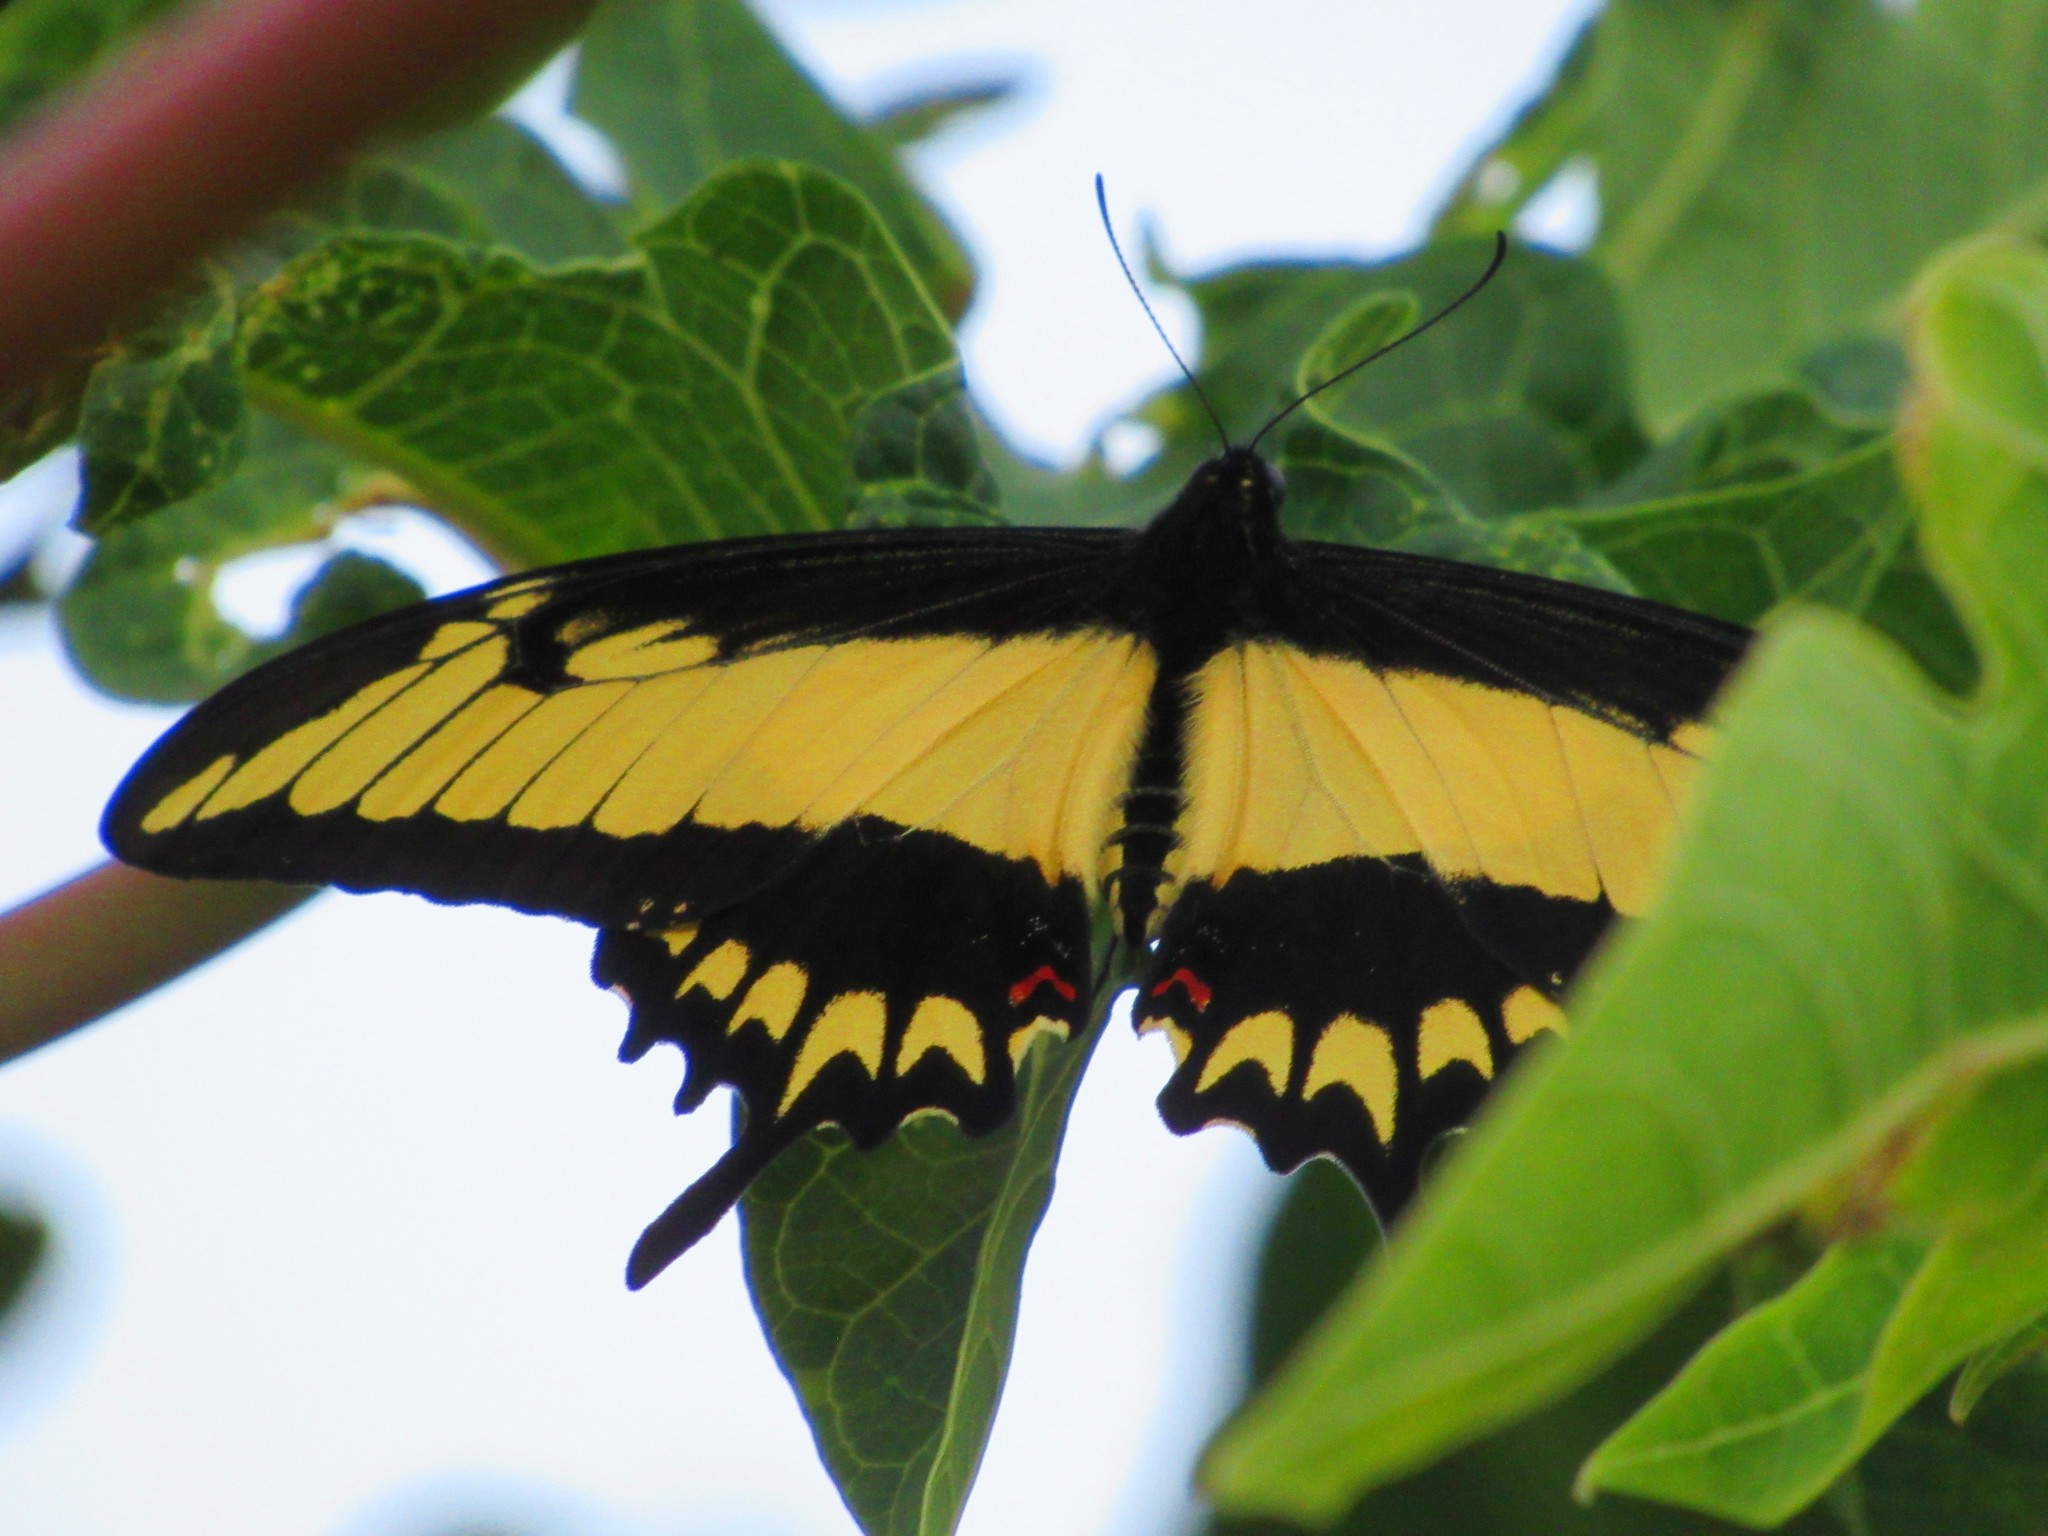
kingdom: Animalia
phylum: Arthropoda
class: Insecta
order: Lepidoptera
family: Papilionidae
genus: Papilio
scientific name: Papilio astyalus
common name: Astyalus swallowtail
